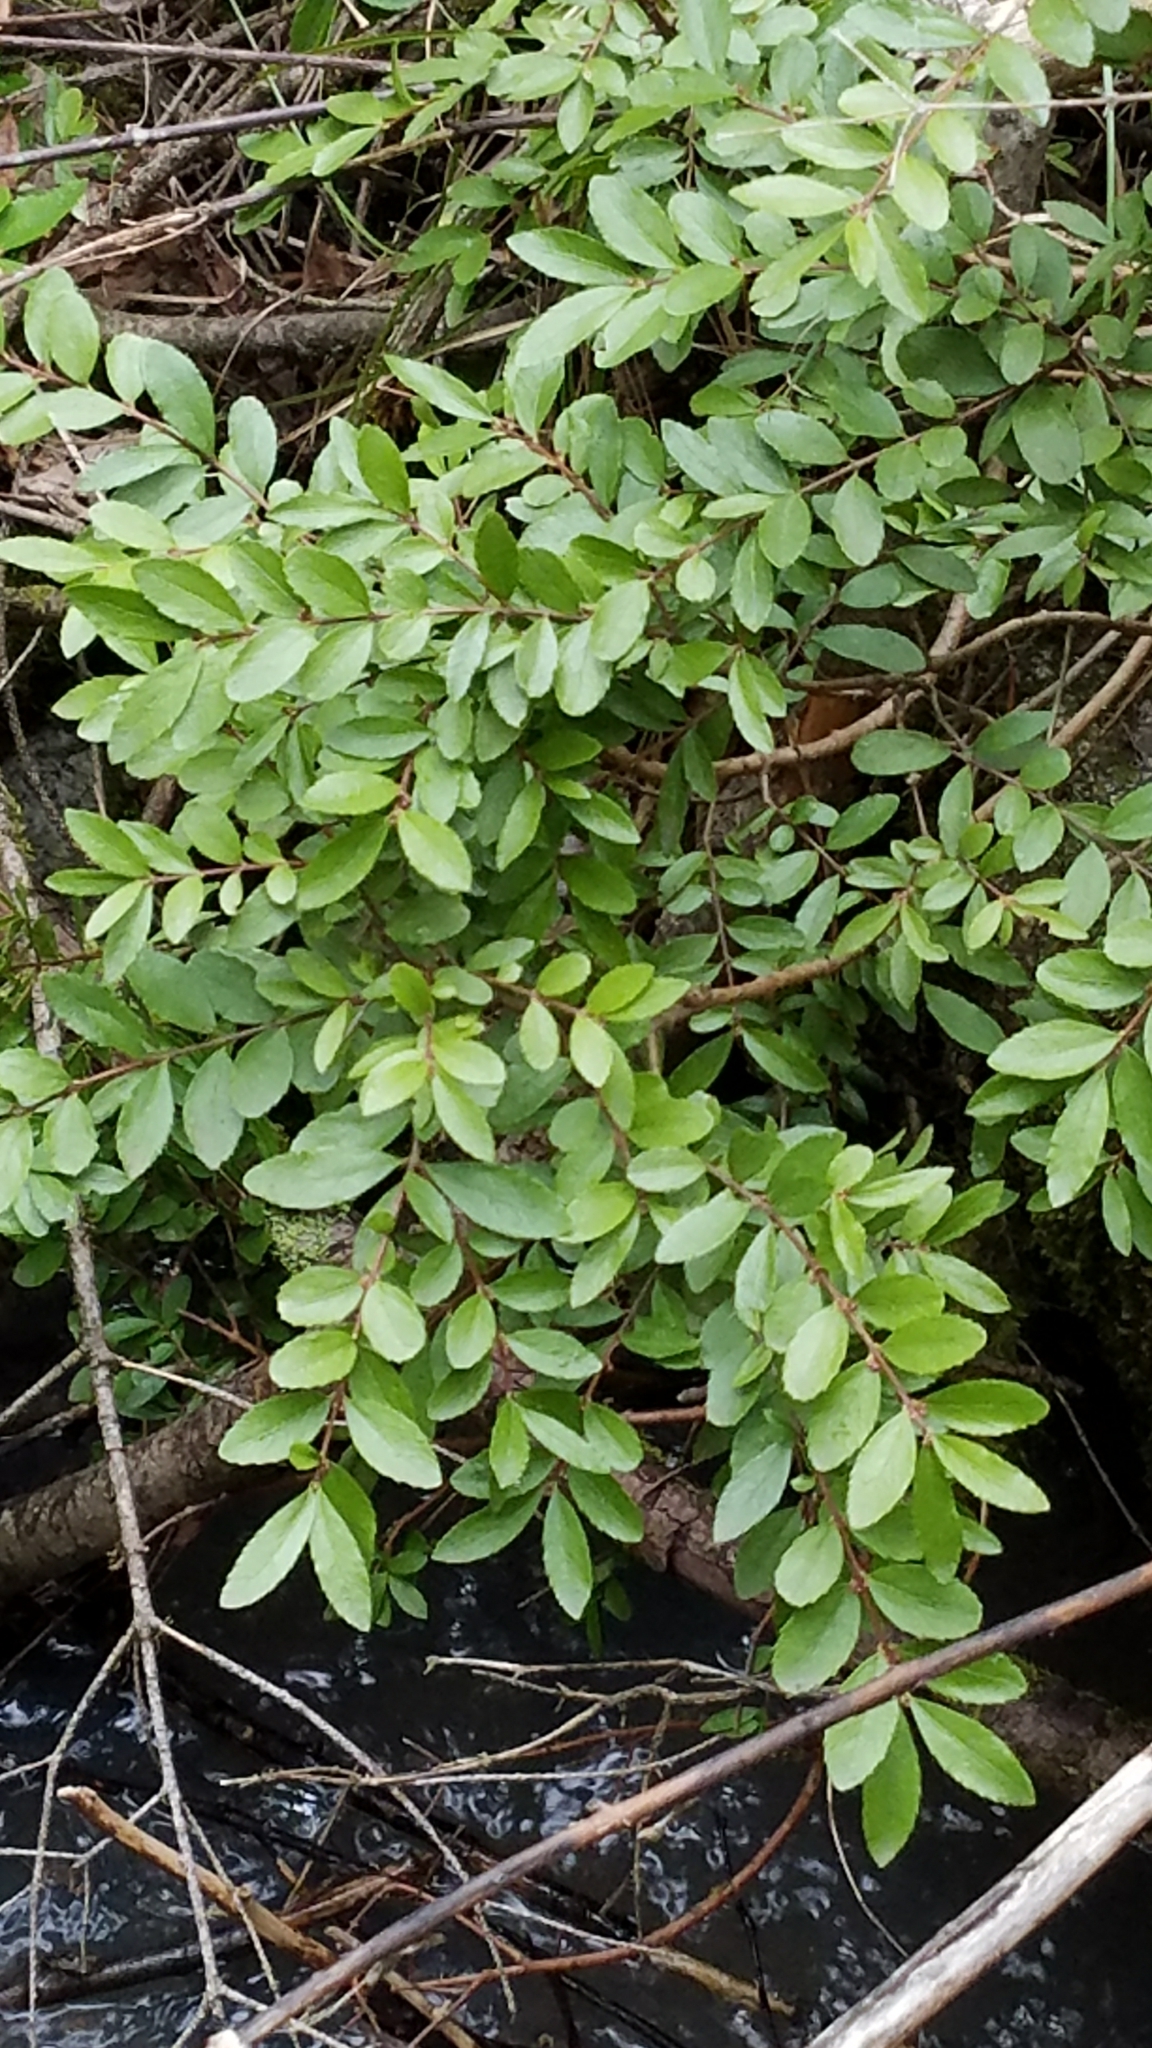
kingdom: Plantae
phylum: Tracheophyta
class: Magnoliopsida
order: Celastrales
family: Celastraceae
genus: Paxistima
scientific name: Paxistima myrsinites
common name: Mountain-lover
